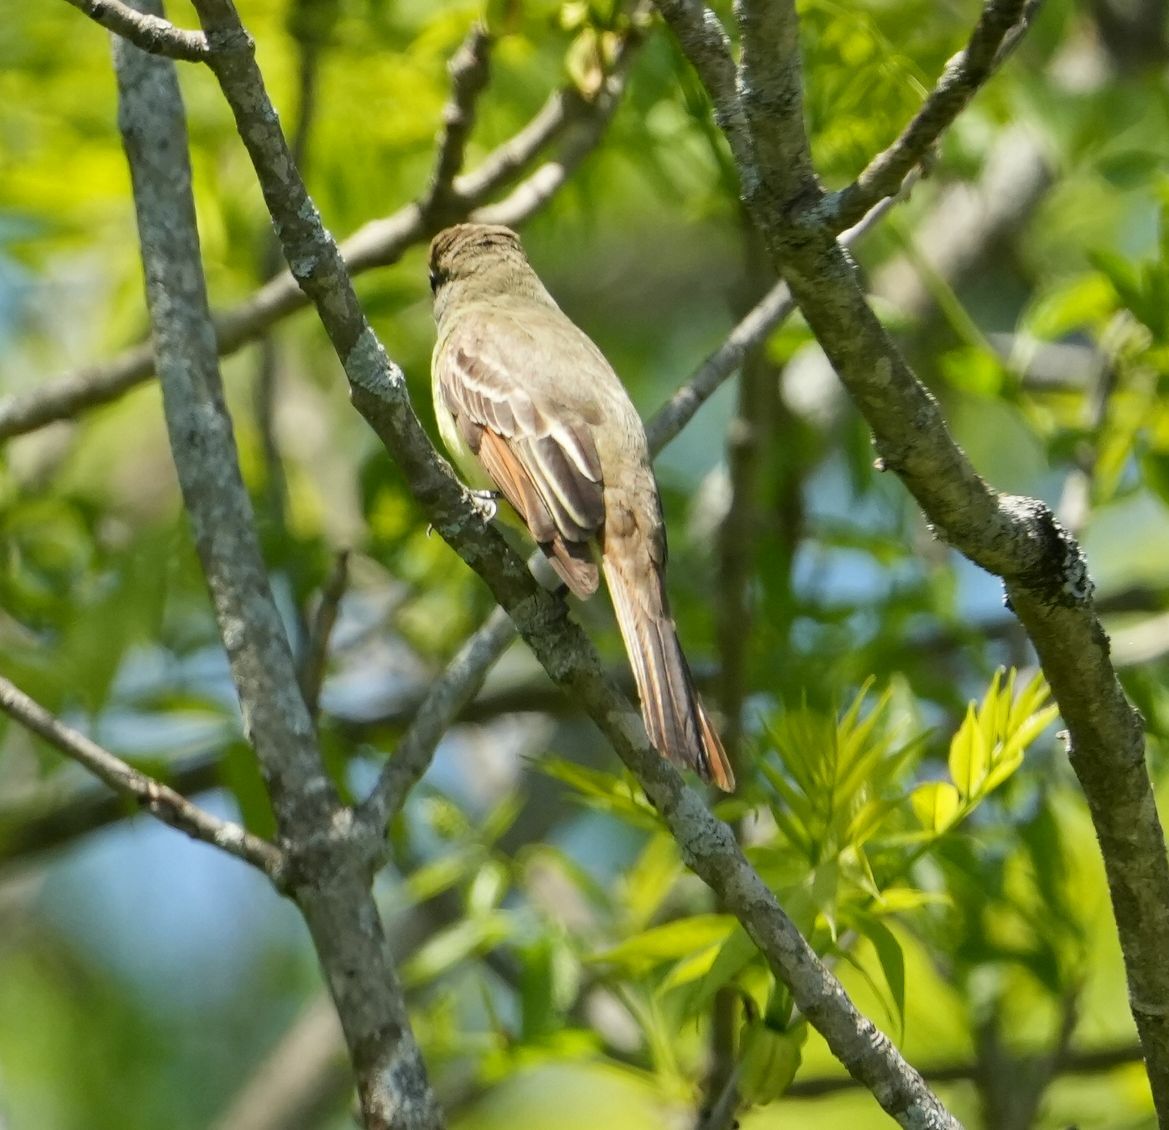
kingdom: Animalia
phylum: Chordata
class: Aves
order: Passeriformes
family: Tyrannidae
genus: Myiarchus
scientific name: Myiarchus crinitus
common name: Great crested flycatcher
